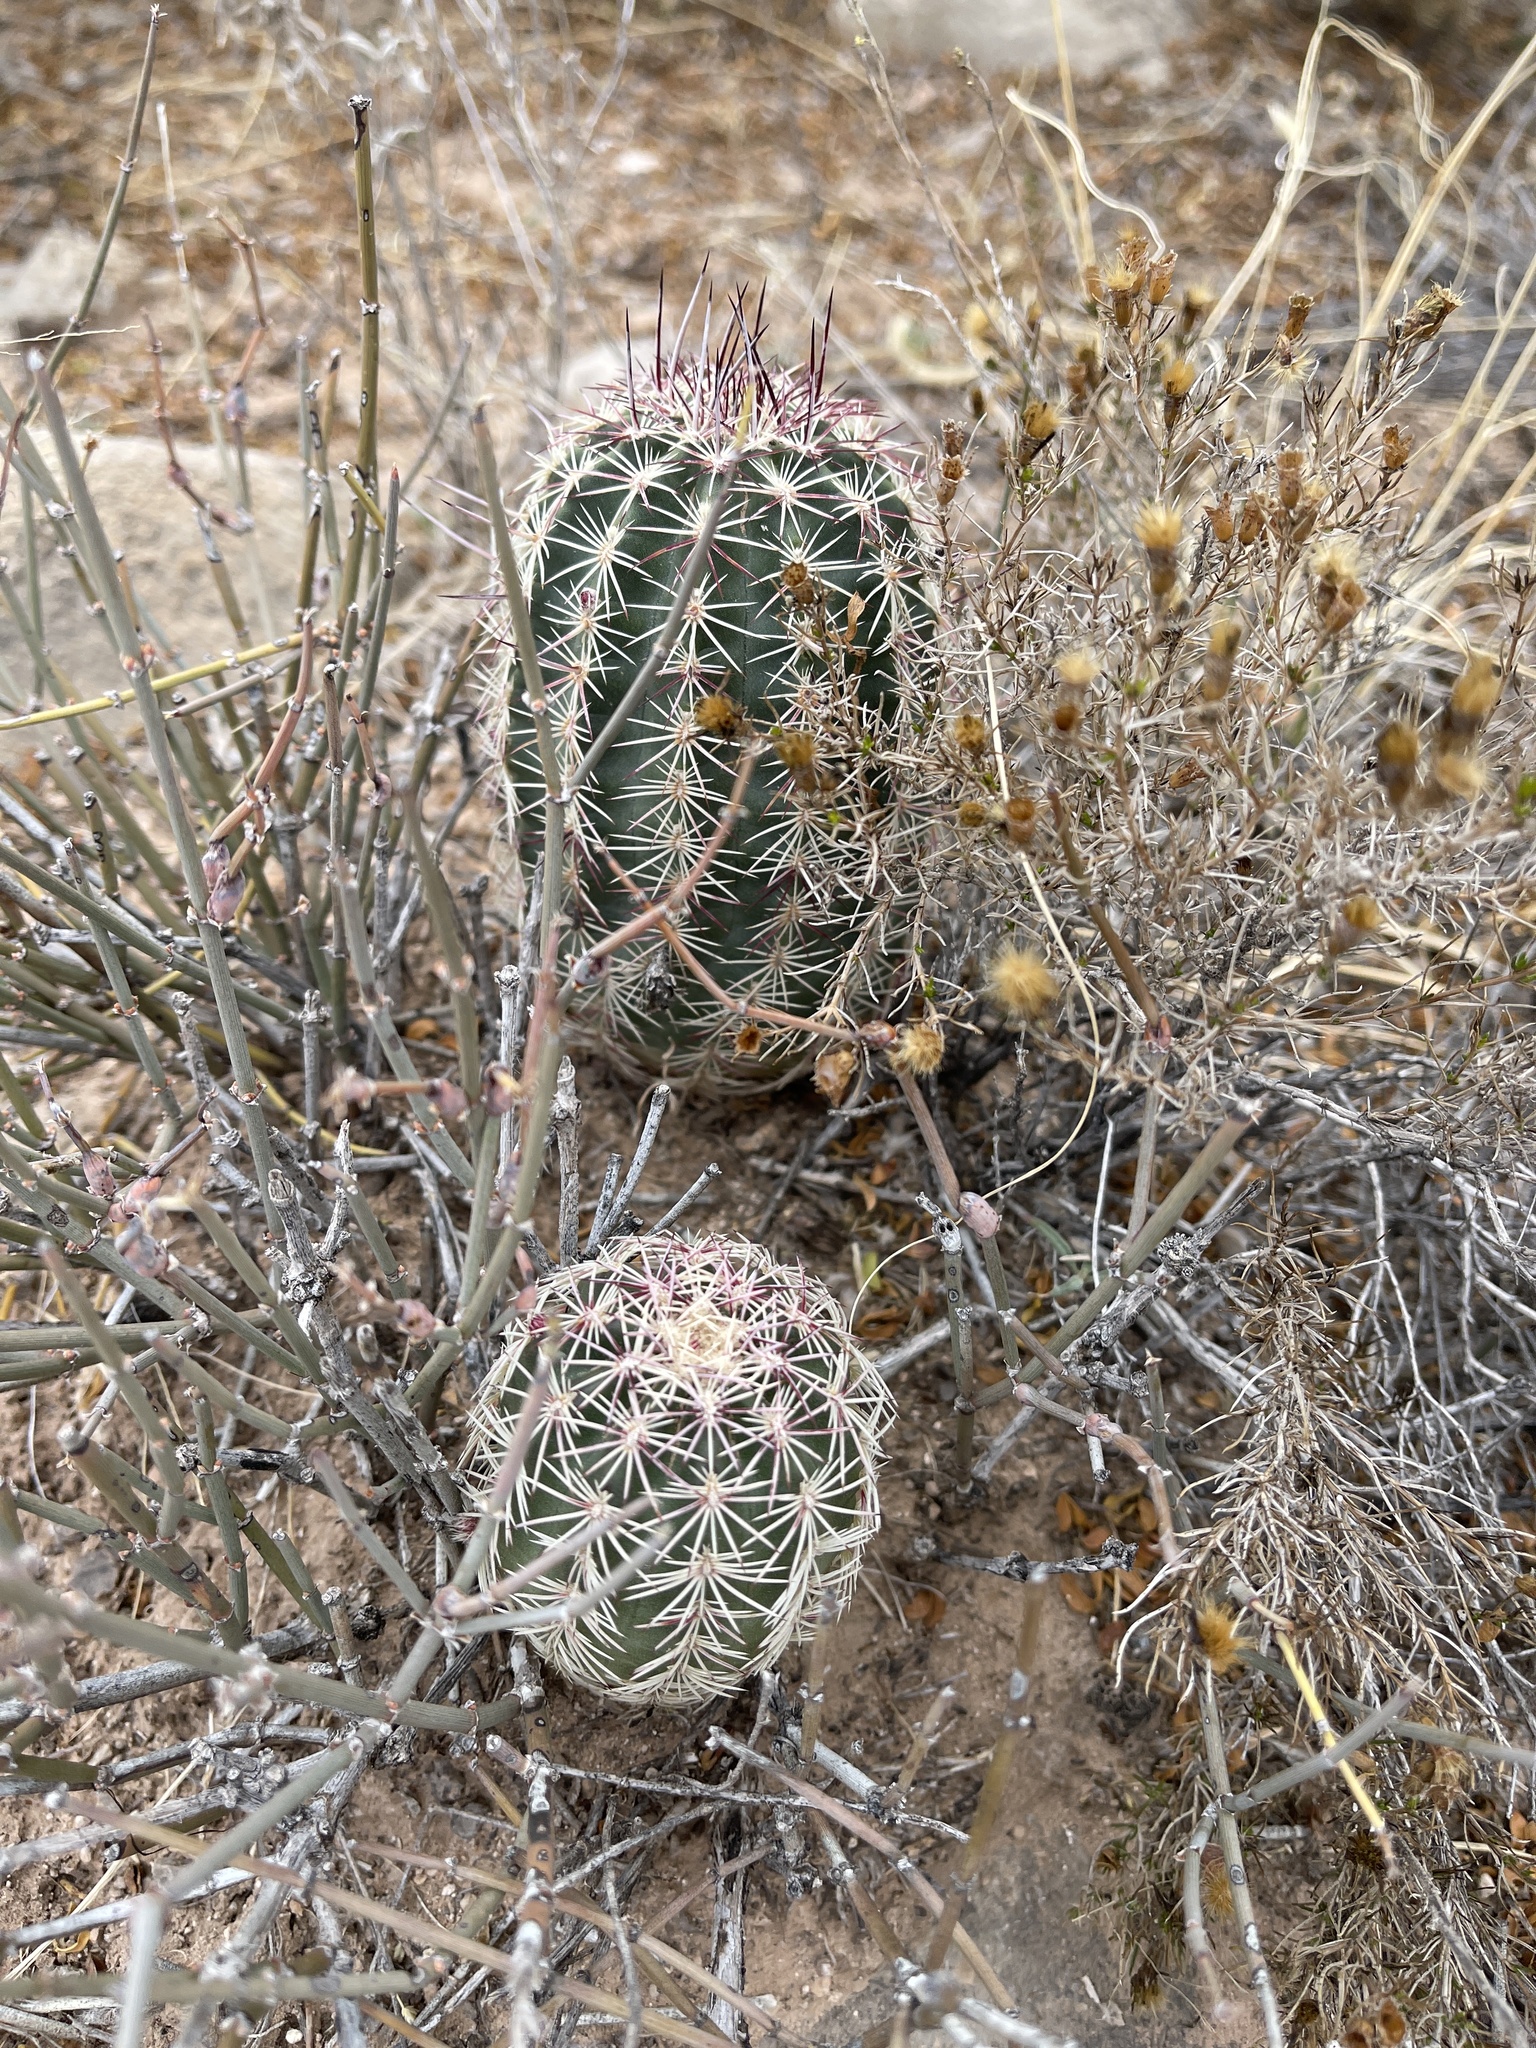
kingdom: Plantae
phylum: Tracheophyta
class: Magnoliopsida
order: Caryophyllales
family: Cactaceae
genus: Echinocereus
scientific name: Echinocereus viridiflorus
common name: Nylon hedgehog cactus
